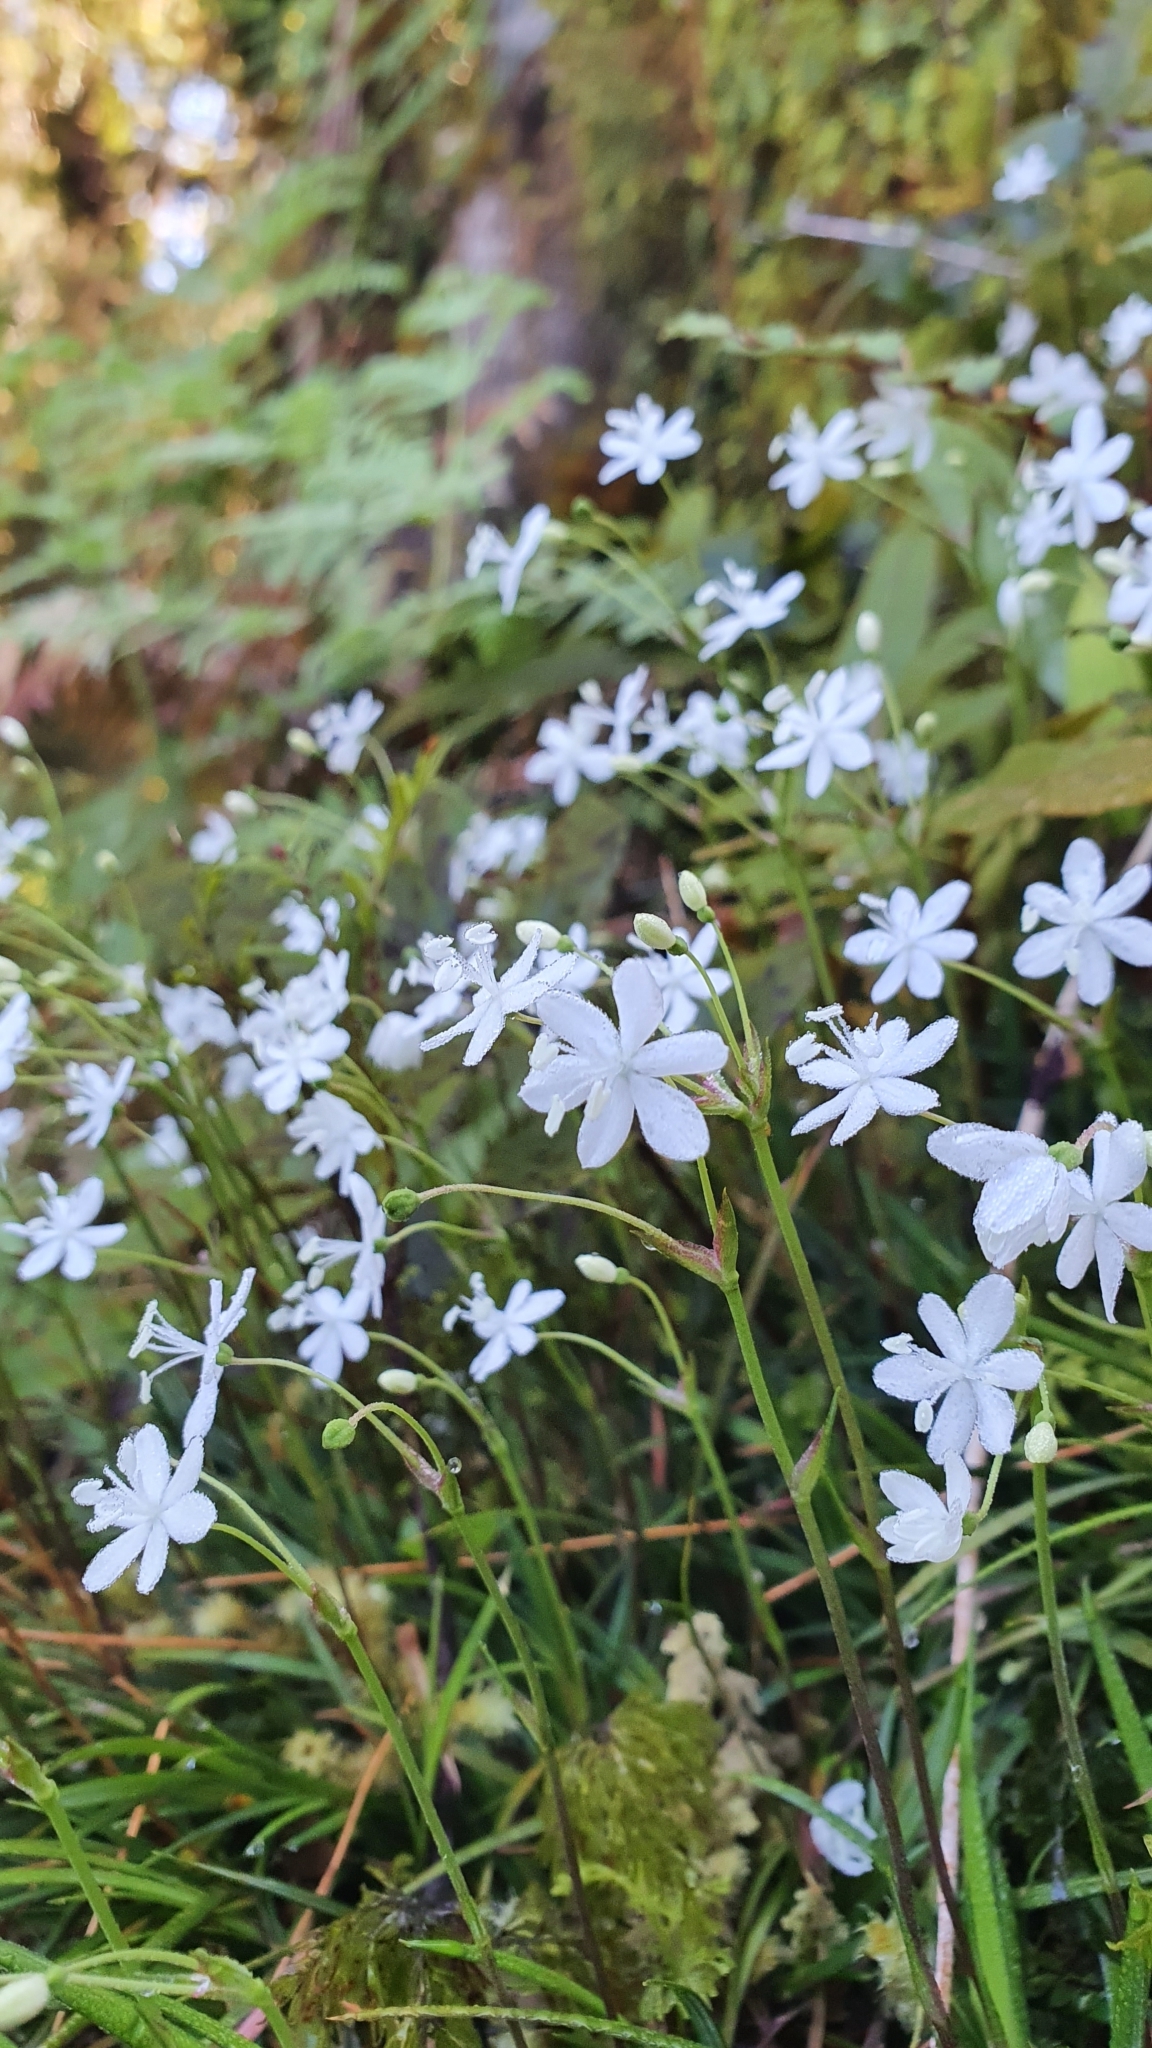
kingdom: Plantae
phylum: Tracheophyta
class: Liliopsida
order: Asparagales
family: Iridaceae
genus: Libertia
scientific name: Libertia micrantha
